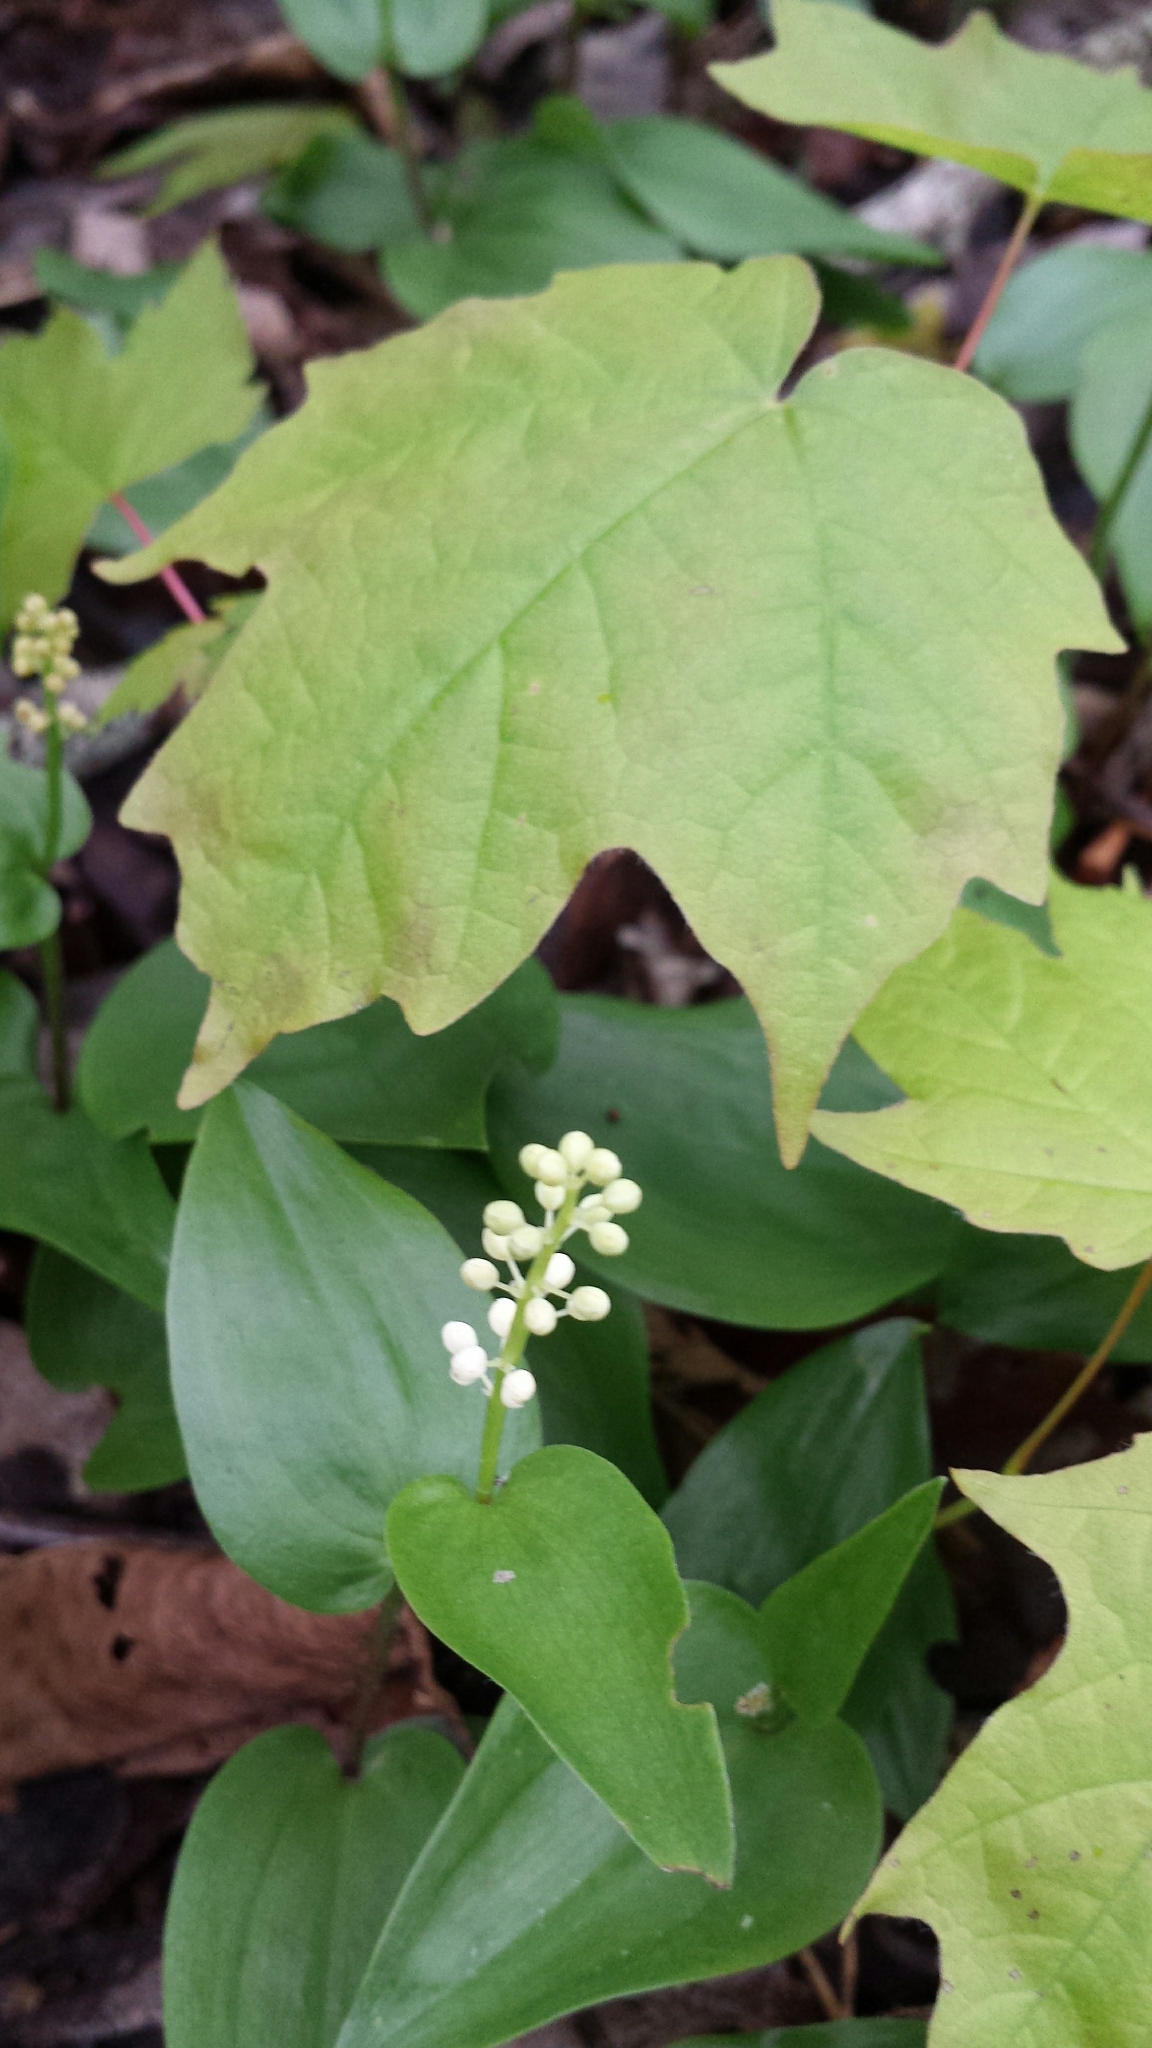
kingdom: Plantae
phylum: Tracheophyta
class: Liliopsida
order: Asparagales
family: Asparagaceae
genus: Maianthemum
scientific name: Maianthemum canadense
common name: False lily-of-the-valley
